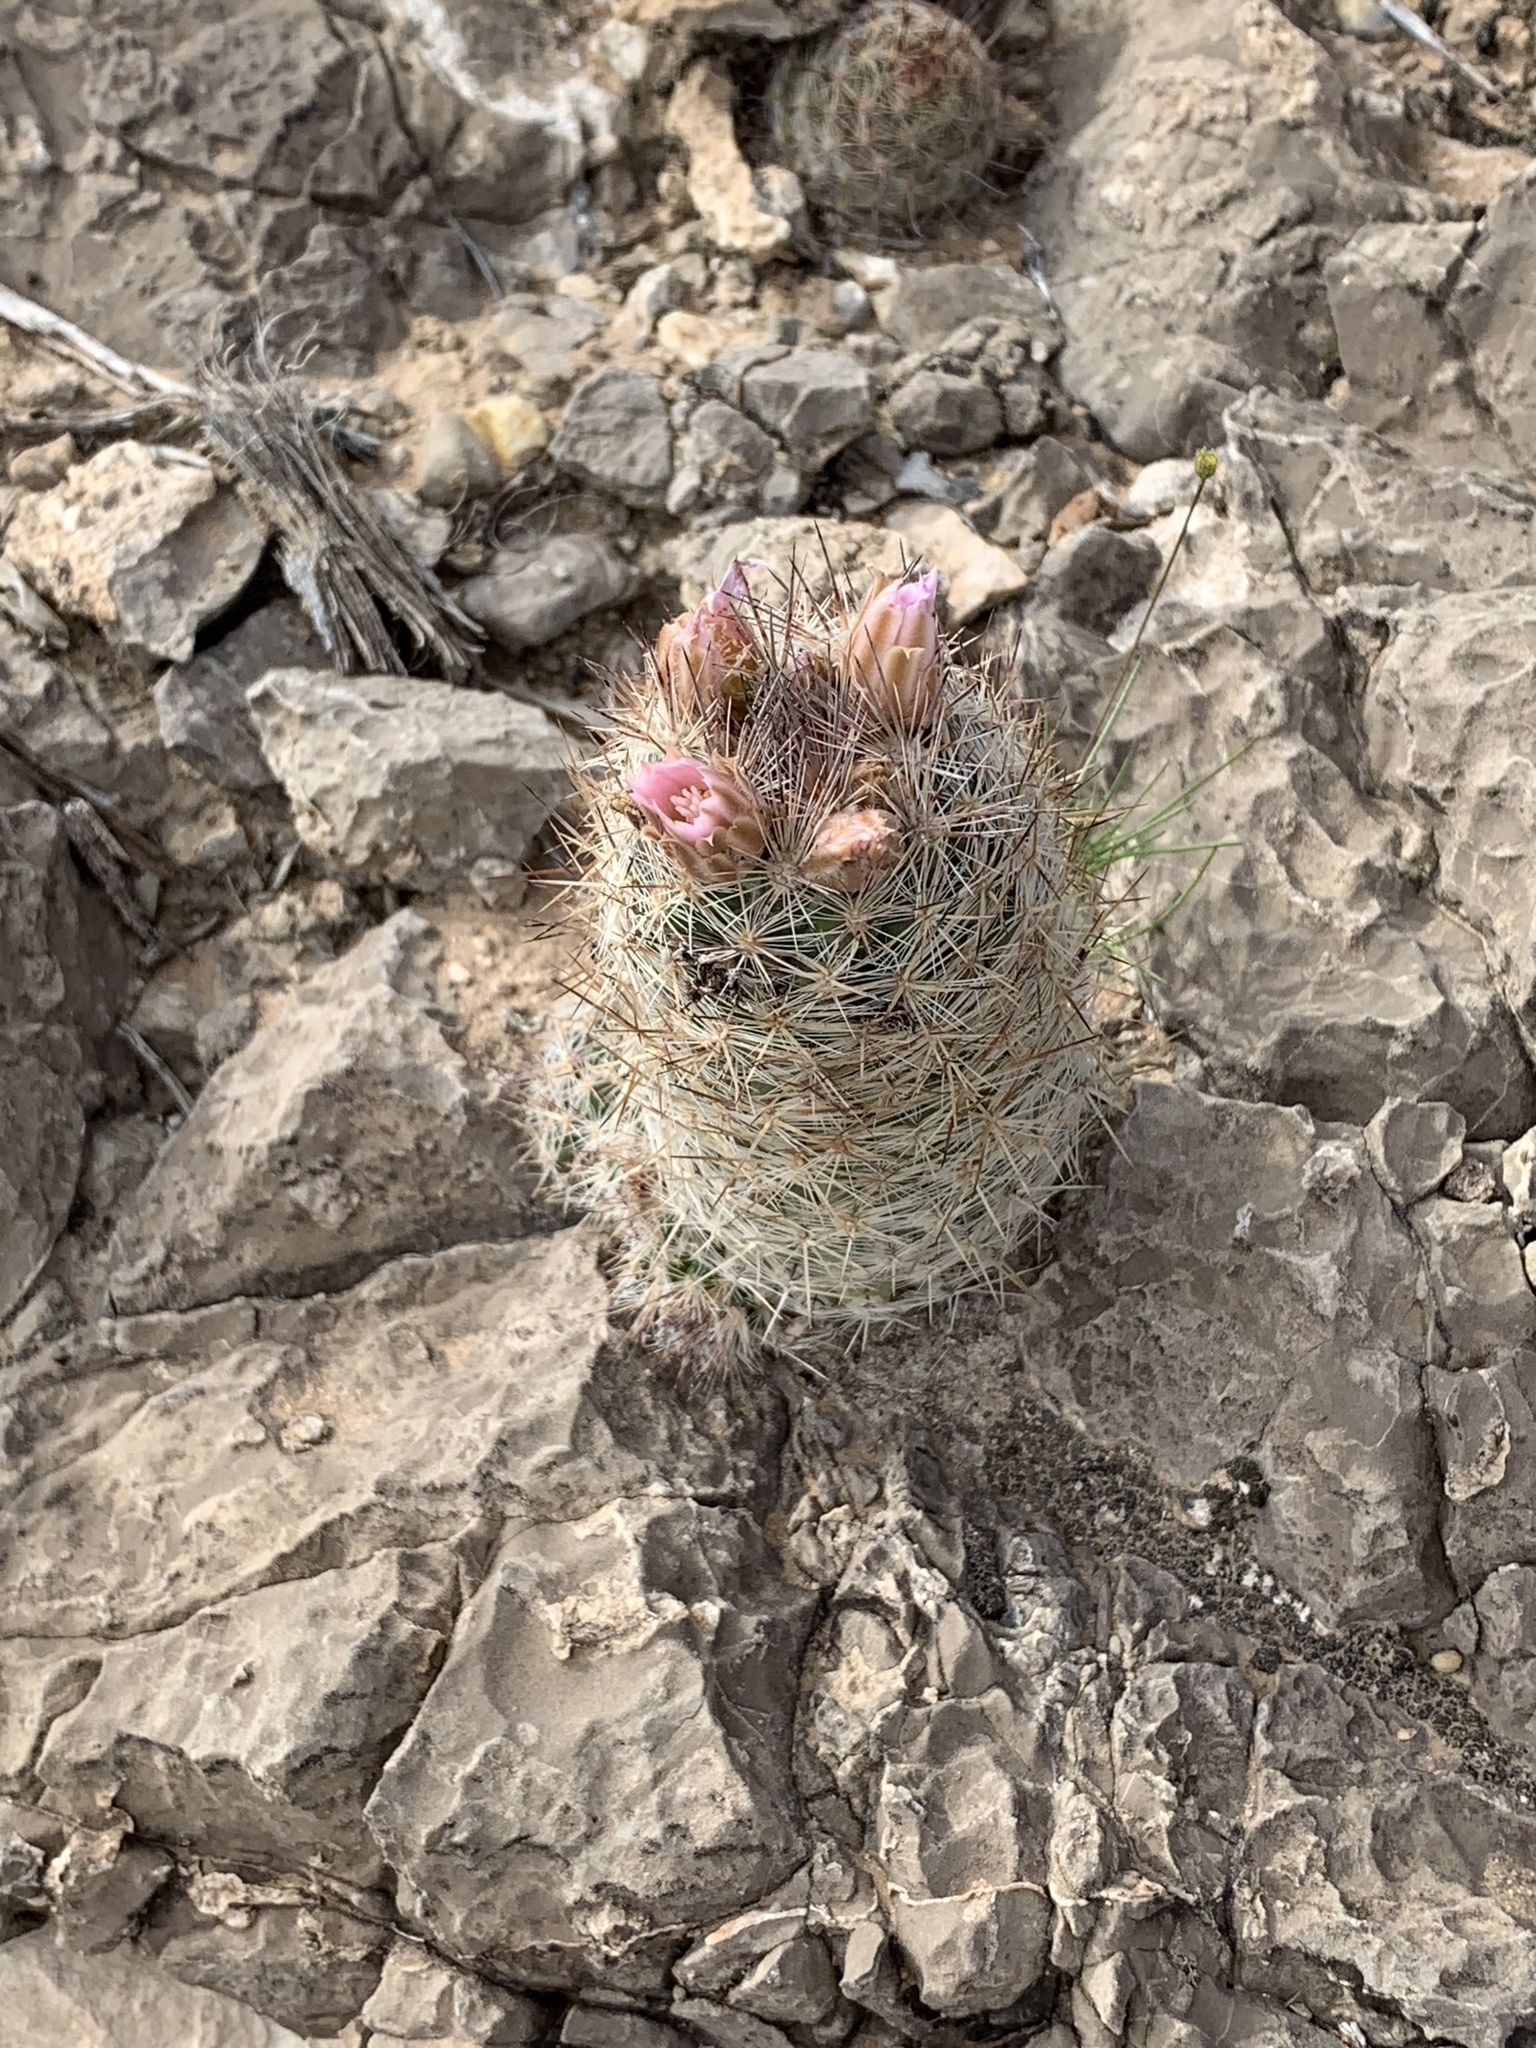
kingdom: Plantae
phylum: Tracheophyta
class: Magnoliopsida
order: Caryophyllales
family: Cactaceae
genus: Pelecyphora
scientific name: Pelecyphora tuberculosa
